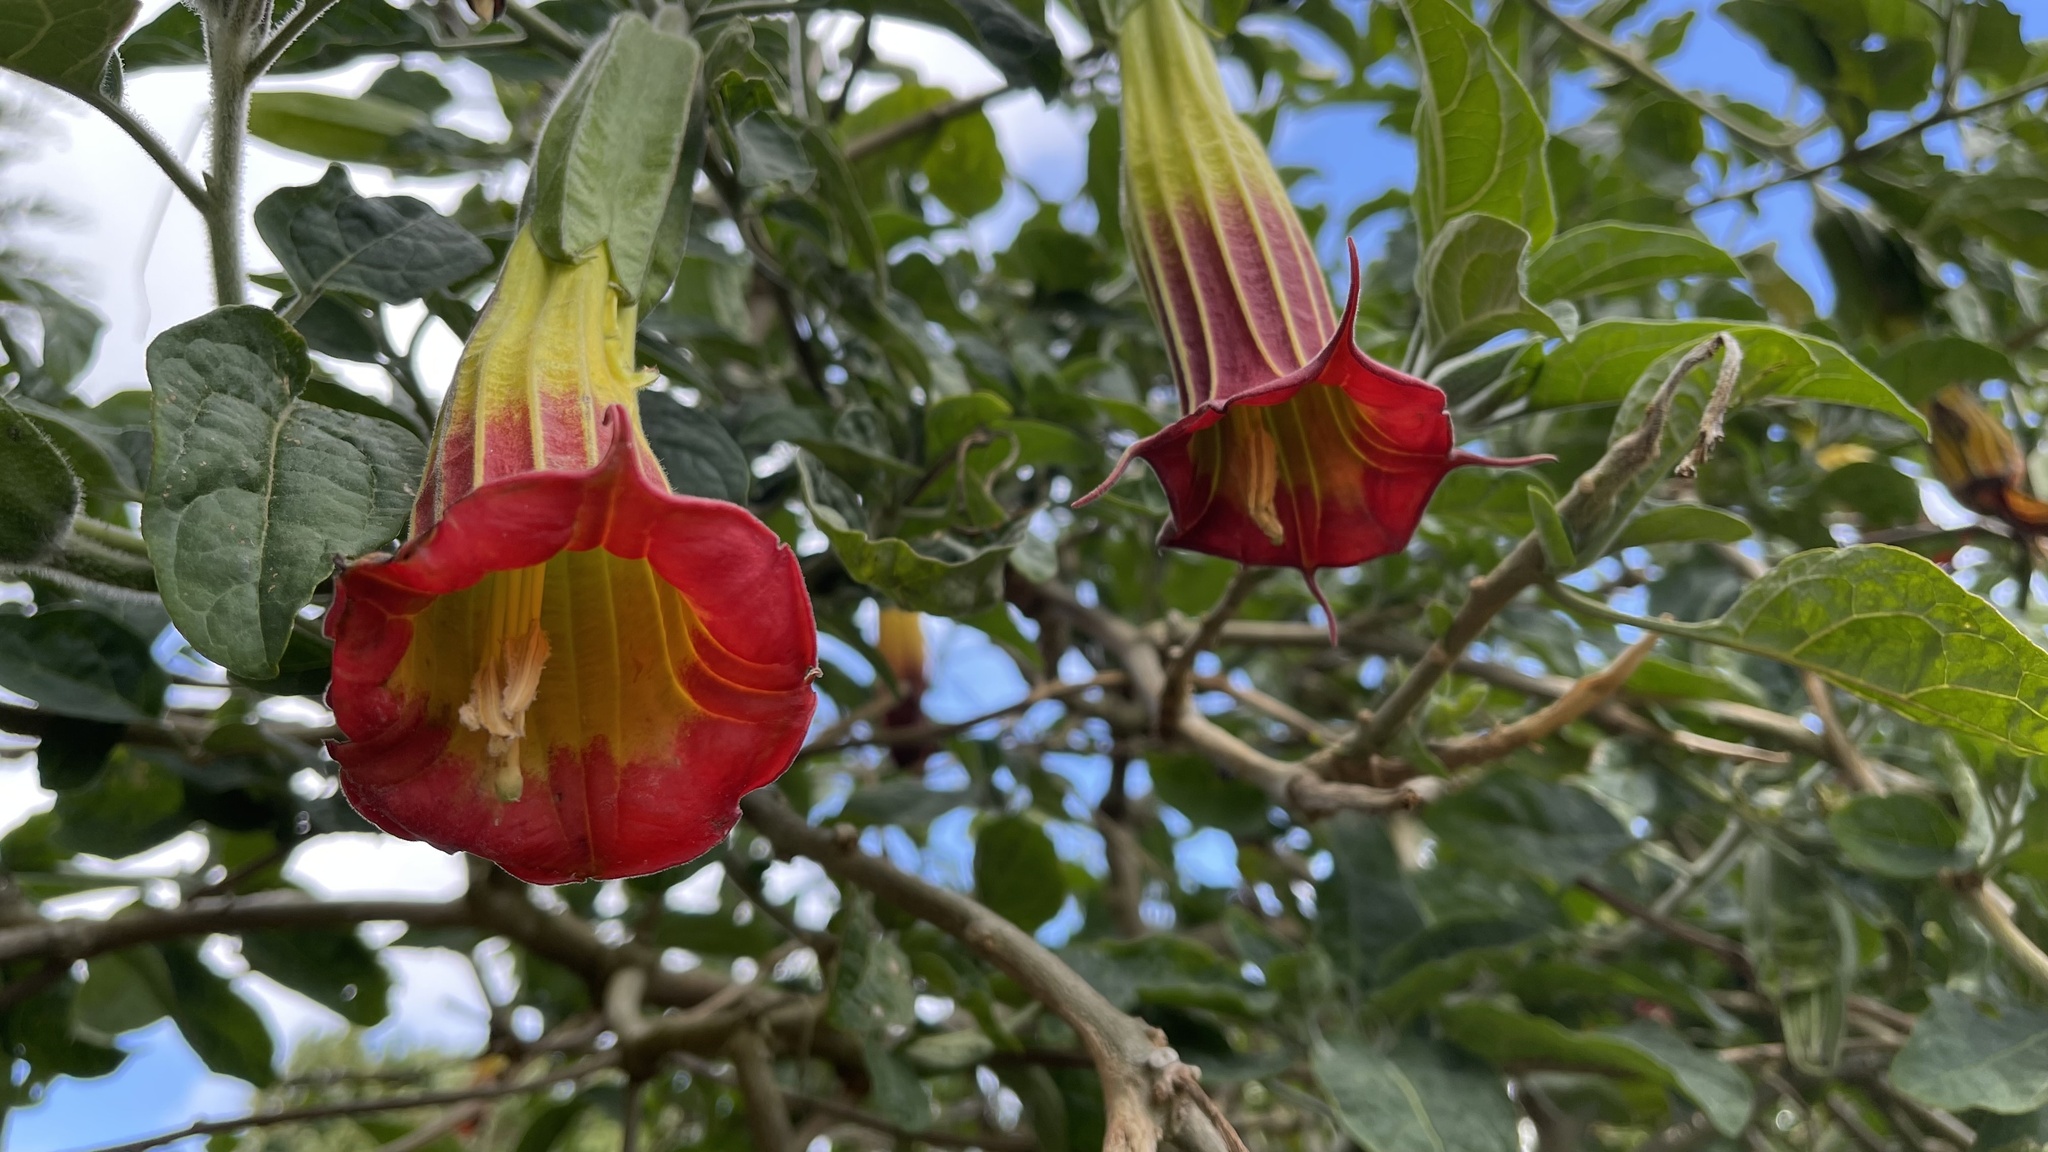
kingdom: Plantae
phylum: Tracheophyta
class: Magnoliopsida
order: Solanales
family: Solanaceae
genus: Brugmansia
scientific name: Brugmansia sanguinea
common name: Red floripontio
